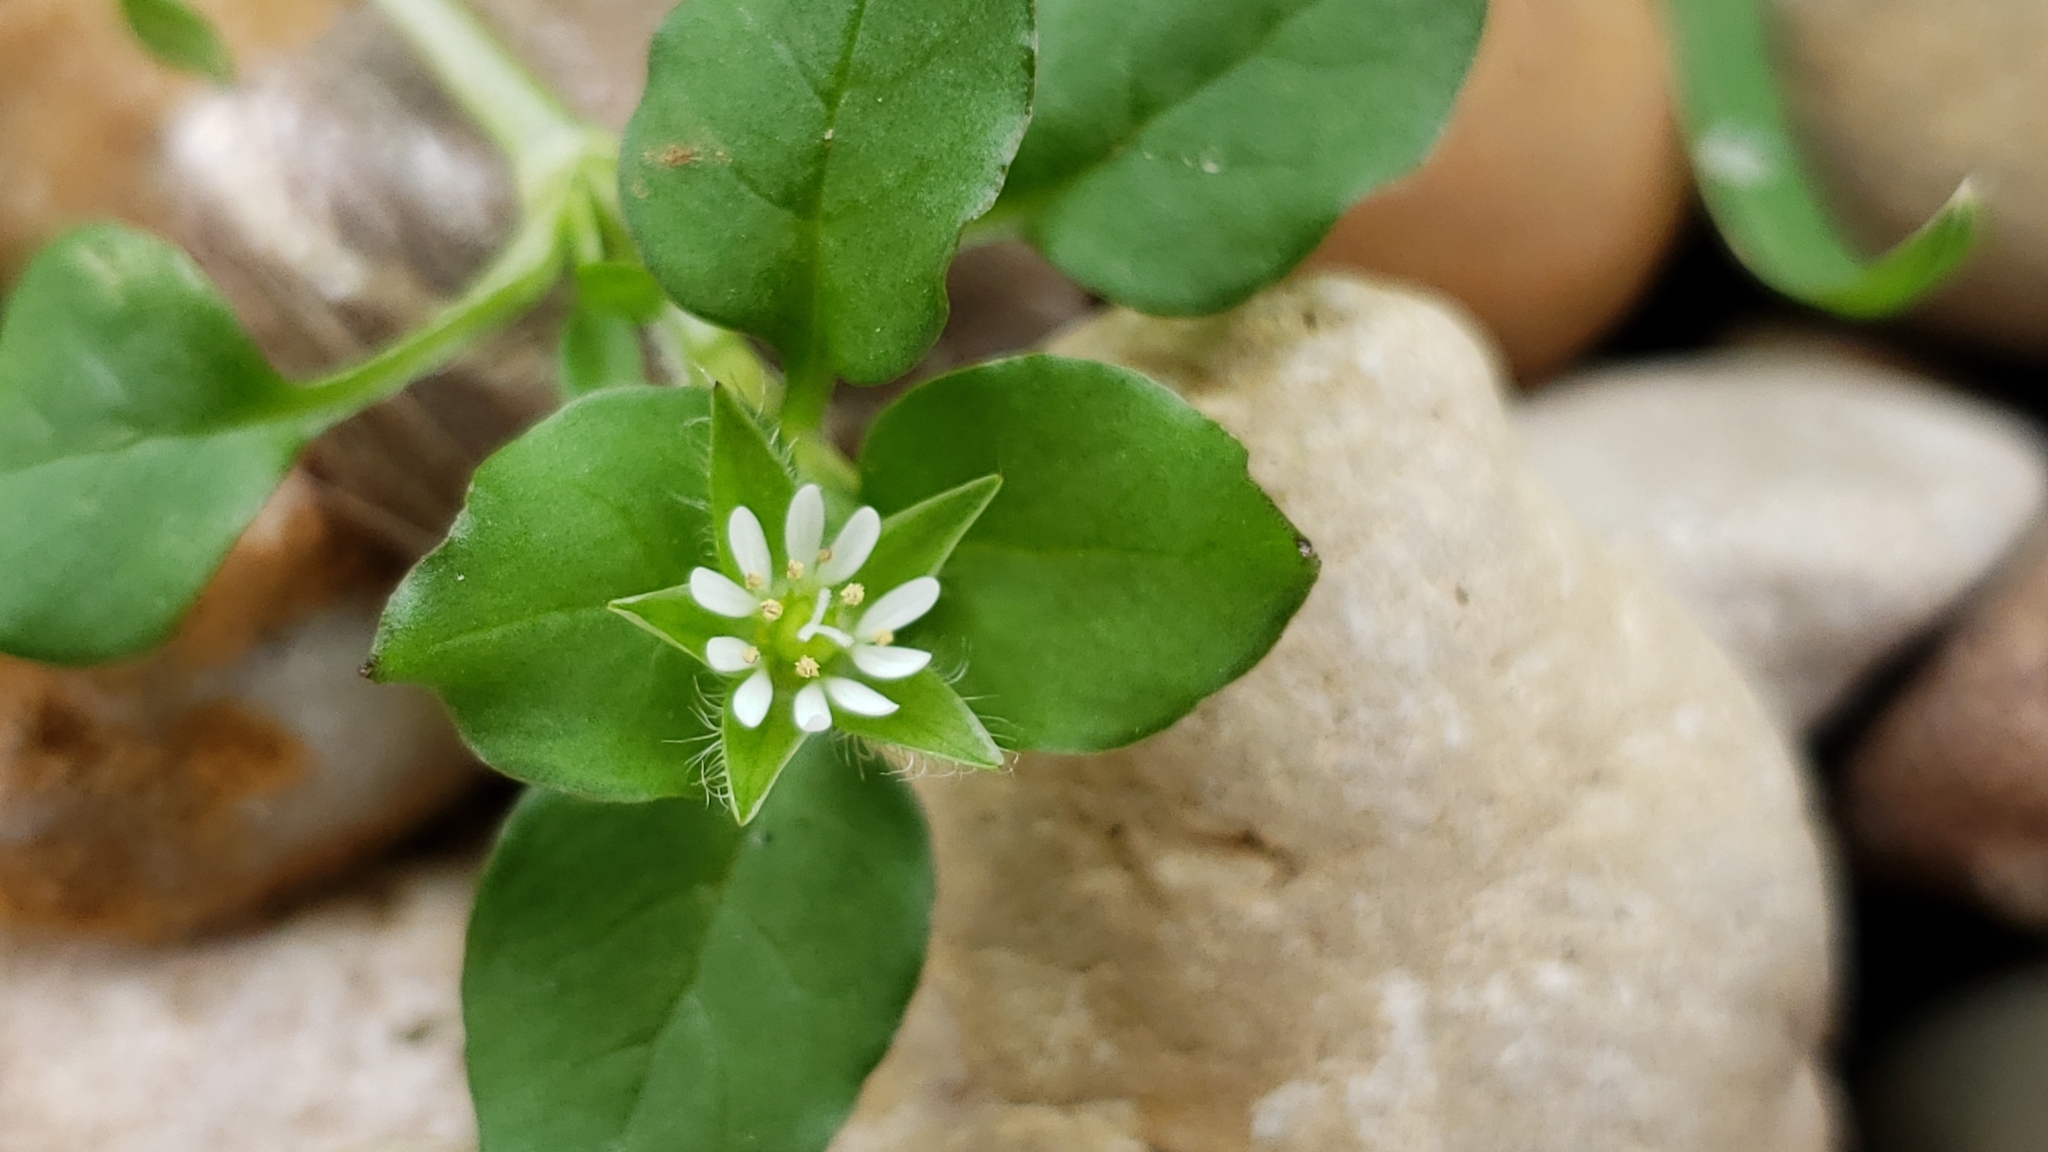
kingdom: Plantae
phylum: Tracheophyta
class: Magnoliopsida
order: Caryophyllales
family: Caryophyllaceae
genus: Stellaria
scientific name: Stellaria media
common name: Common chickweed
